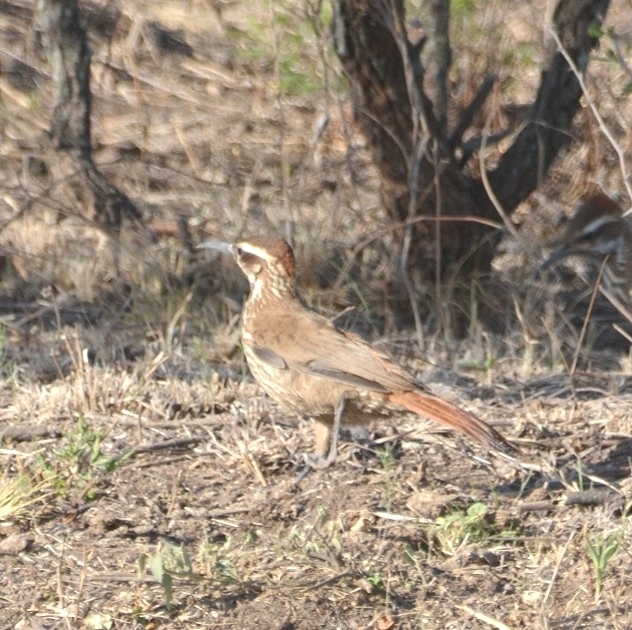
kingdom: Animalia
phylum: Chordata
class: Aves
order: Passeriformes
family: Furnariidae
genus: Drymornis
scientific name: Drymornis bridgesii
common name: Scimitar-billed woodcreeper
